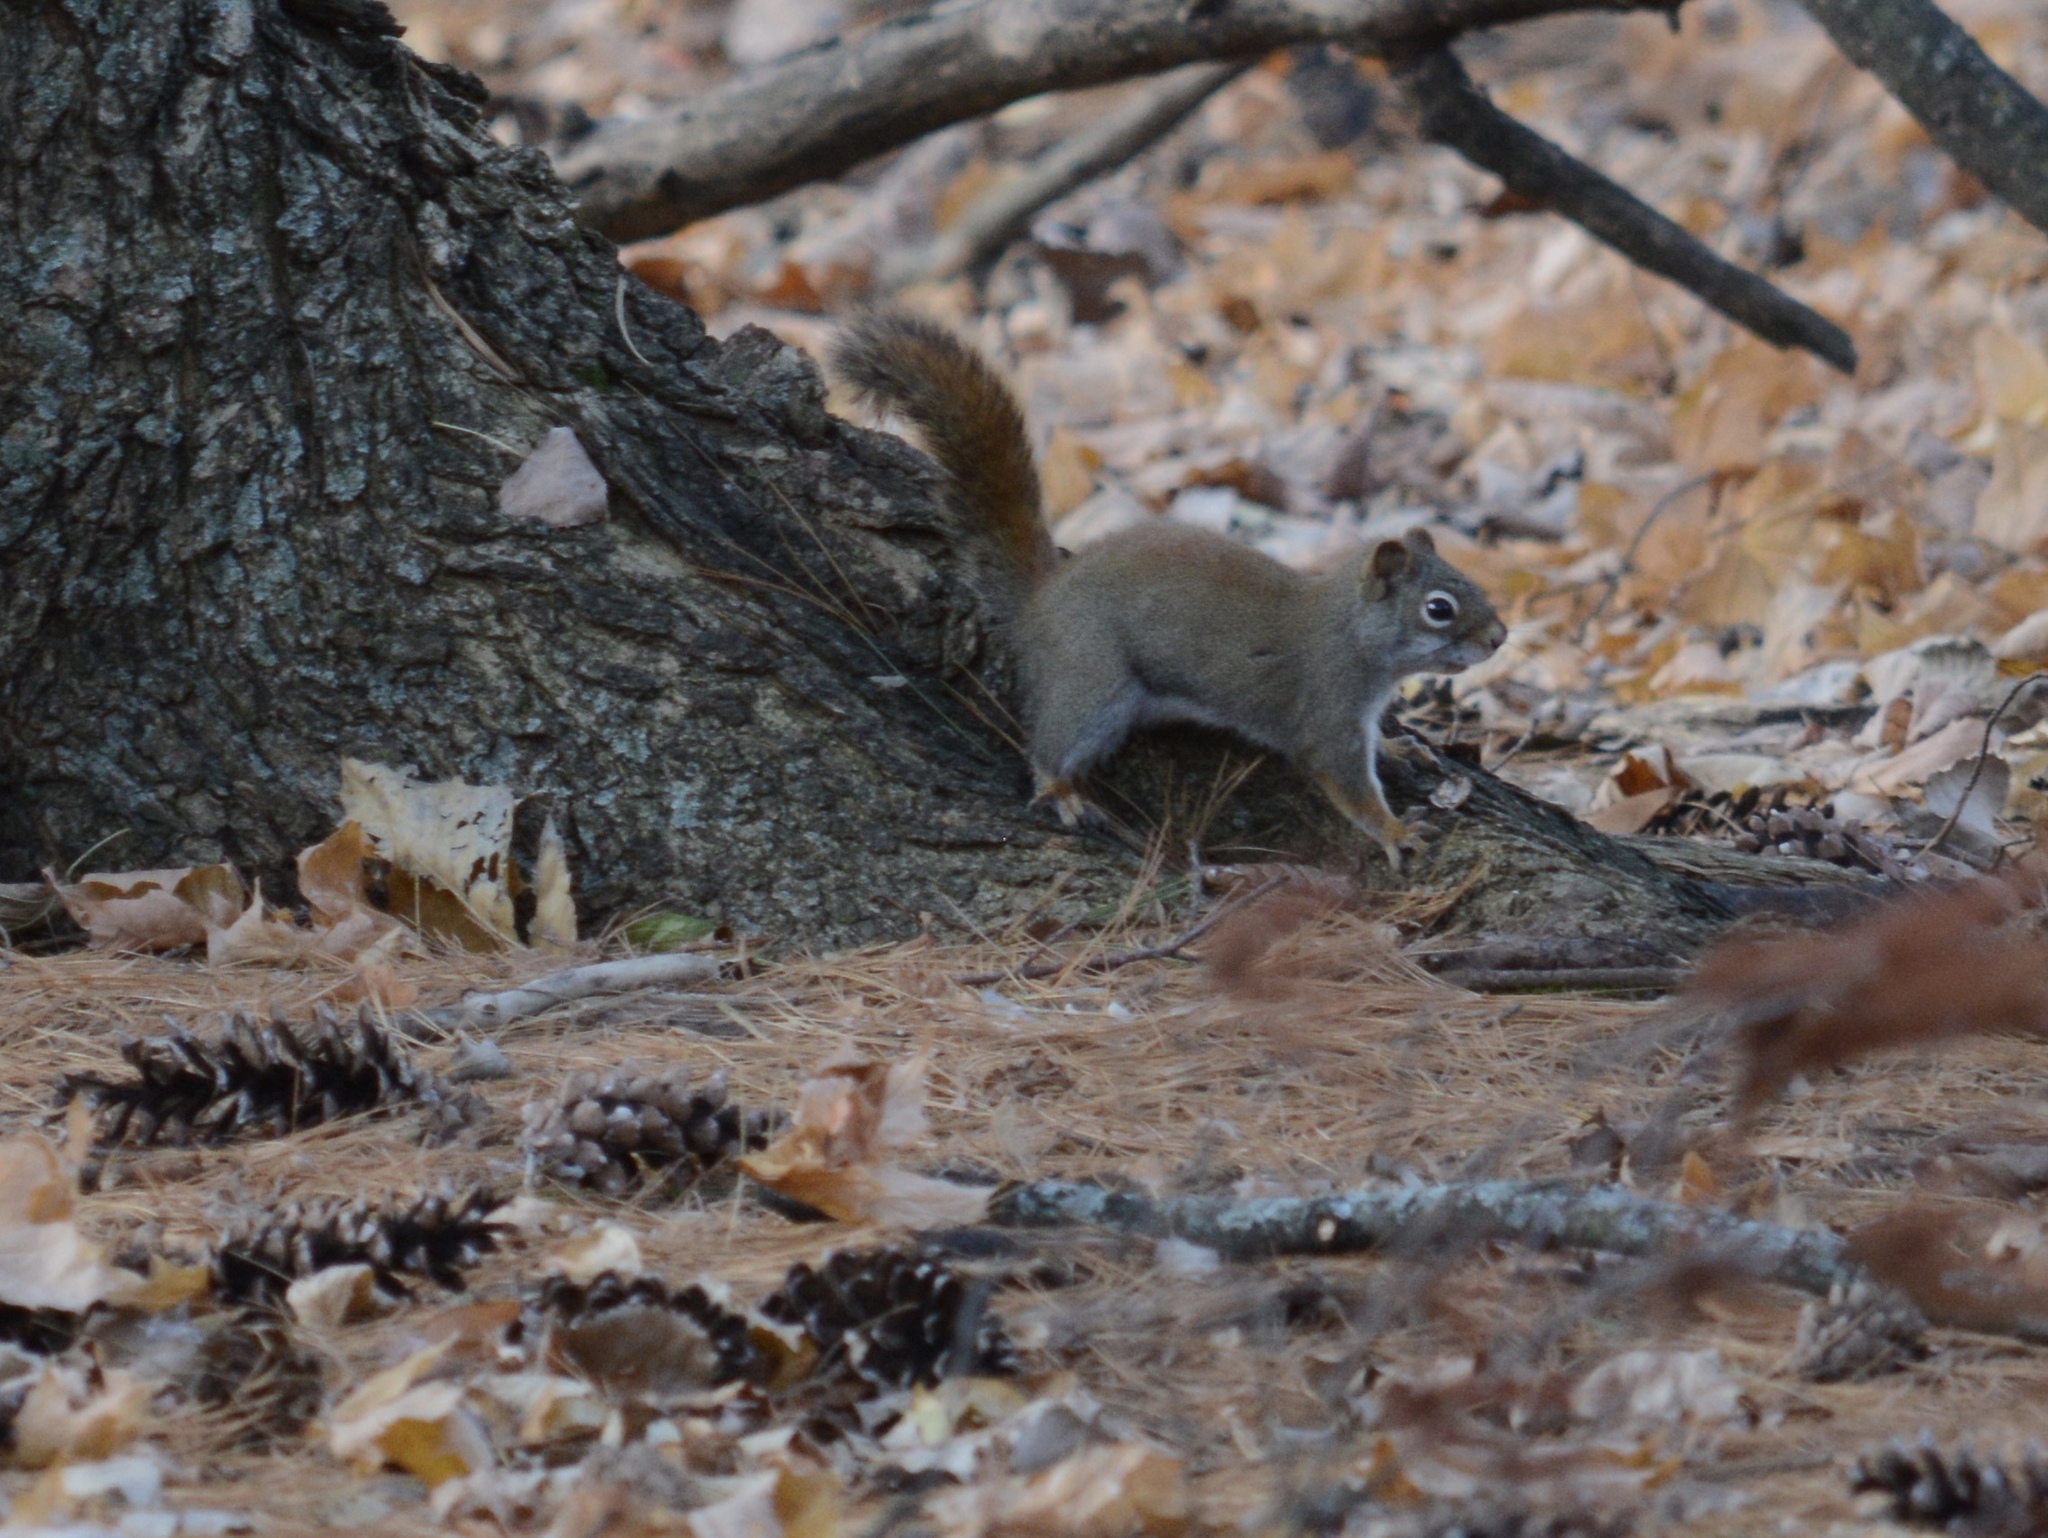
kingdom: Animalia
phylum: Chordata
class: Mammalia
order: Rodentia
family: Sciuridae
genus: Tamiasciurus
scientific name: Tamiasciurus hudsonicus
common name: Red squirrel
